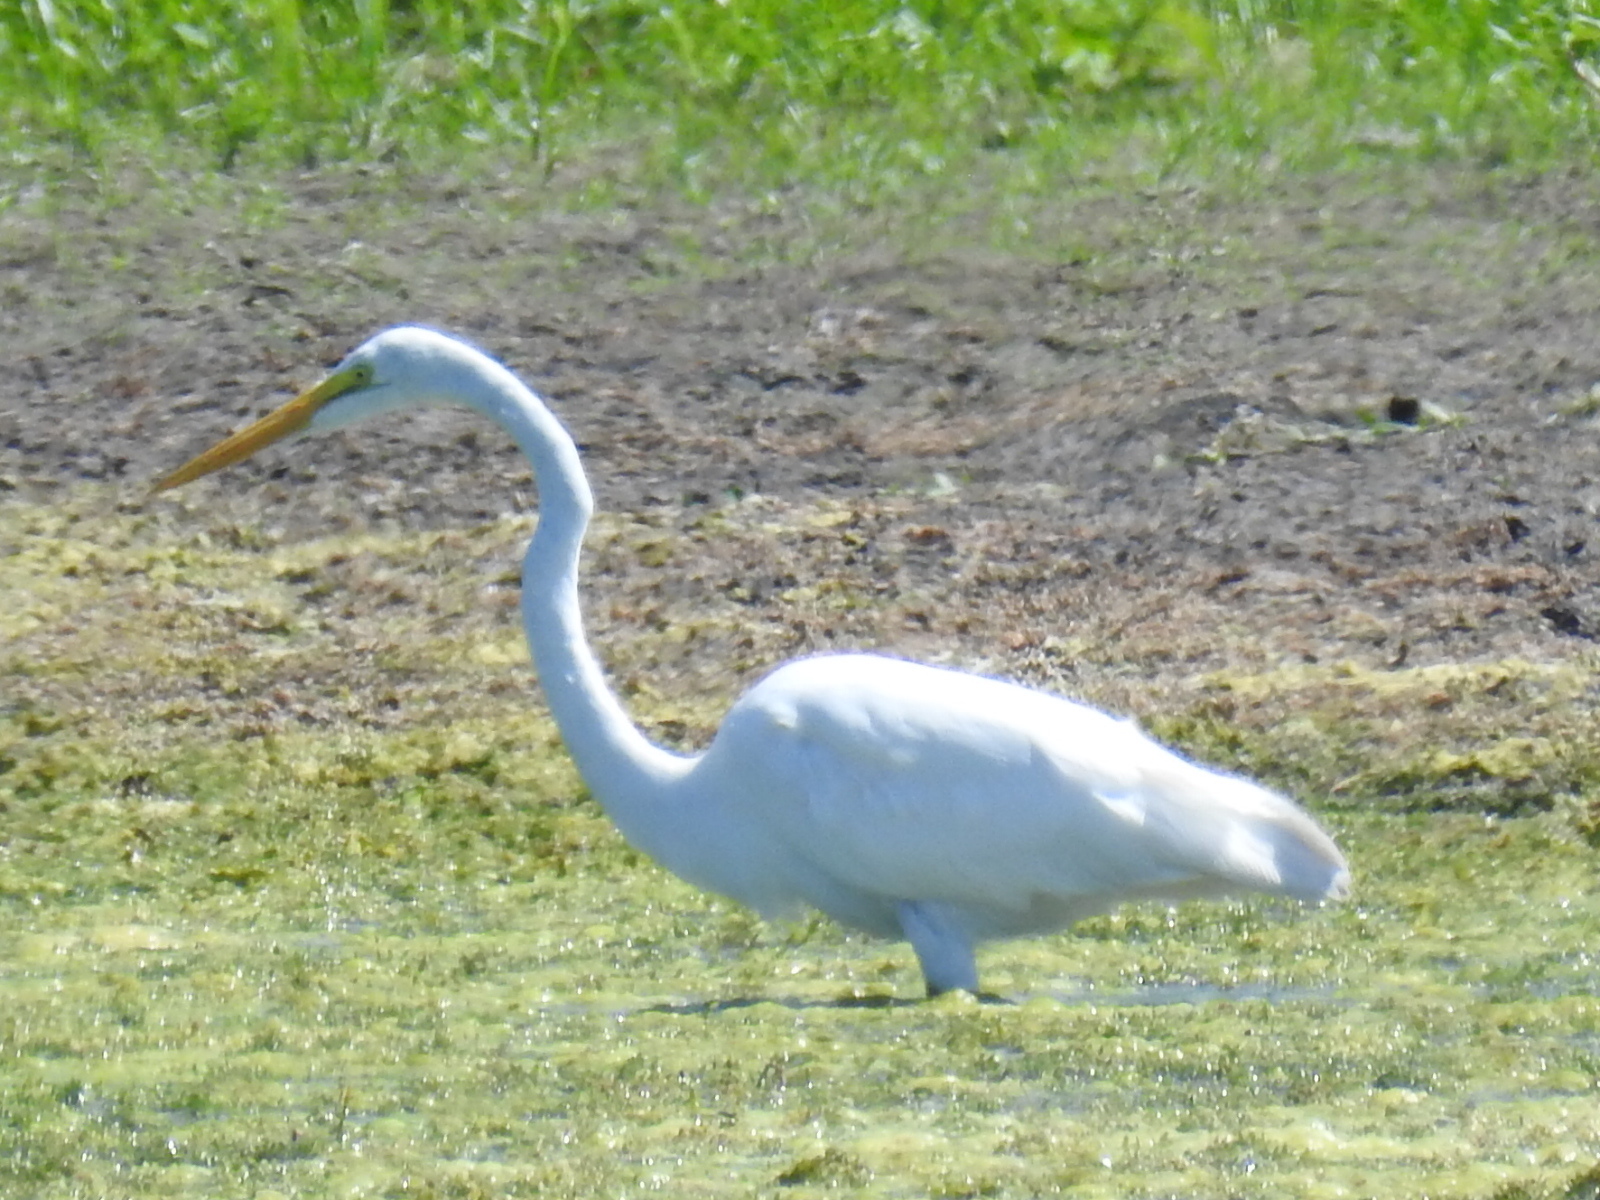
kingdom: Animalia
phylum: Chordata
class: Aves
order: Pelecaniformes
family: Ardeidae
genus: Ardea
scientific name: Ardea alba
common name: Great egret
